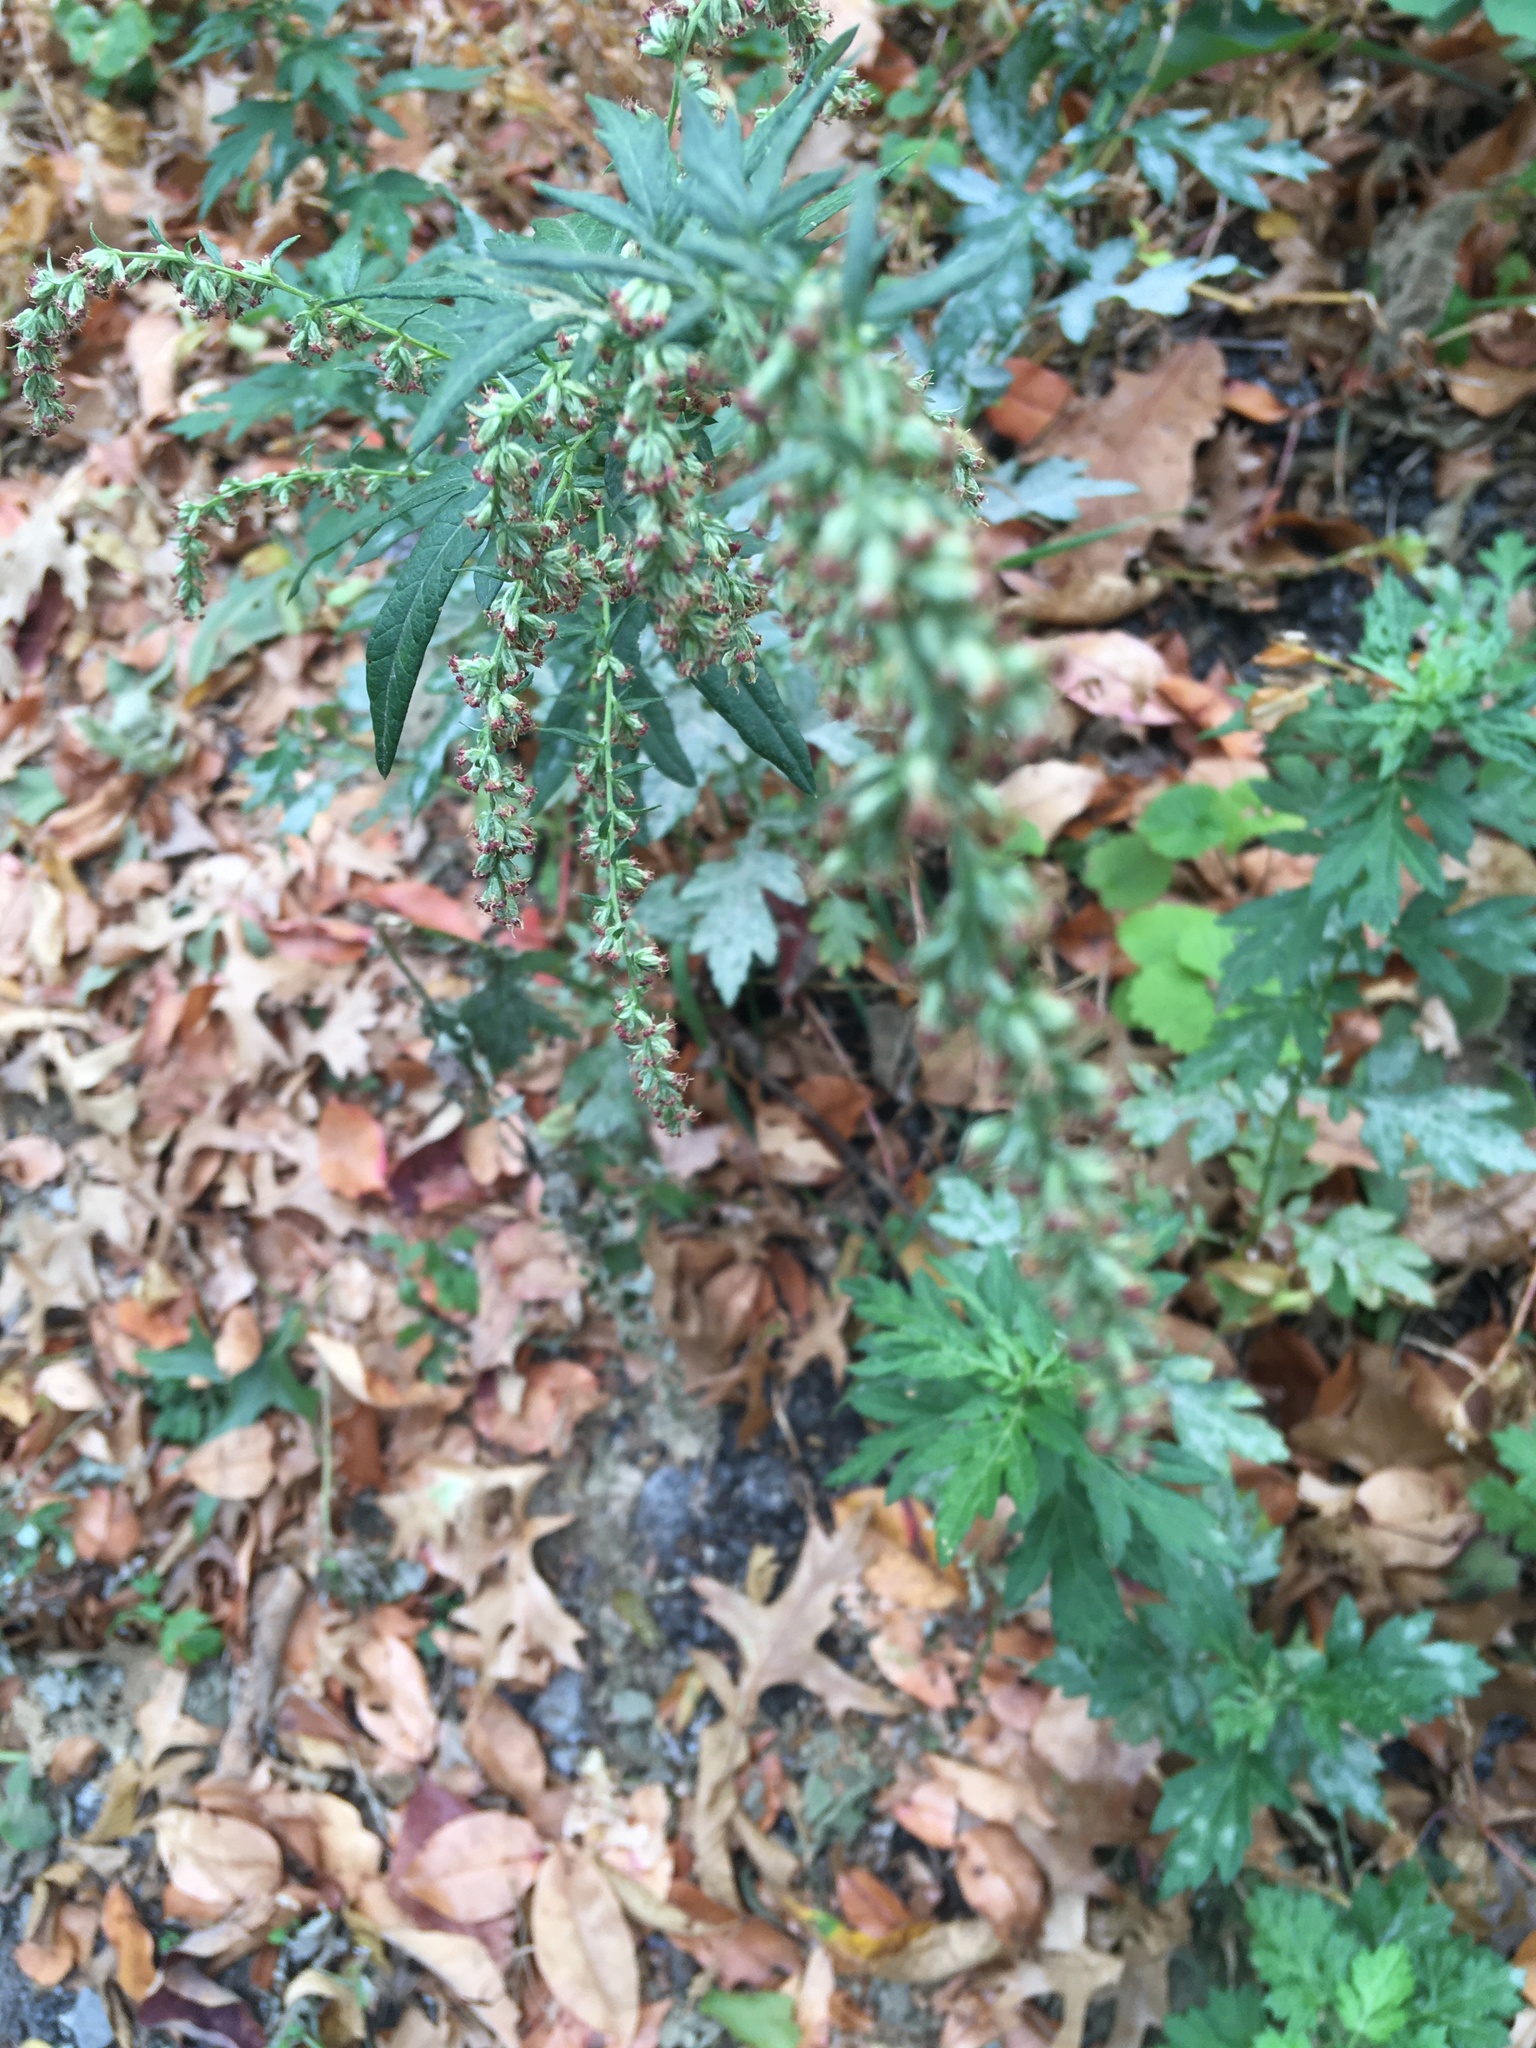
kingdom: Plantae
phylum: Tracheophyta
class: Magnoliopsida
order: Asterales
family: Asteraceae
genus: Artemisia
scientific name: Artemisia vulgaris
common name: Mugwort
